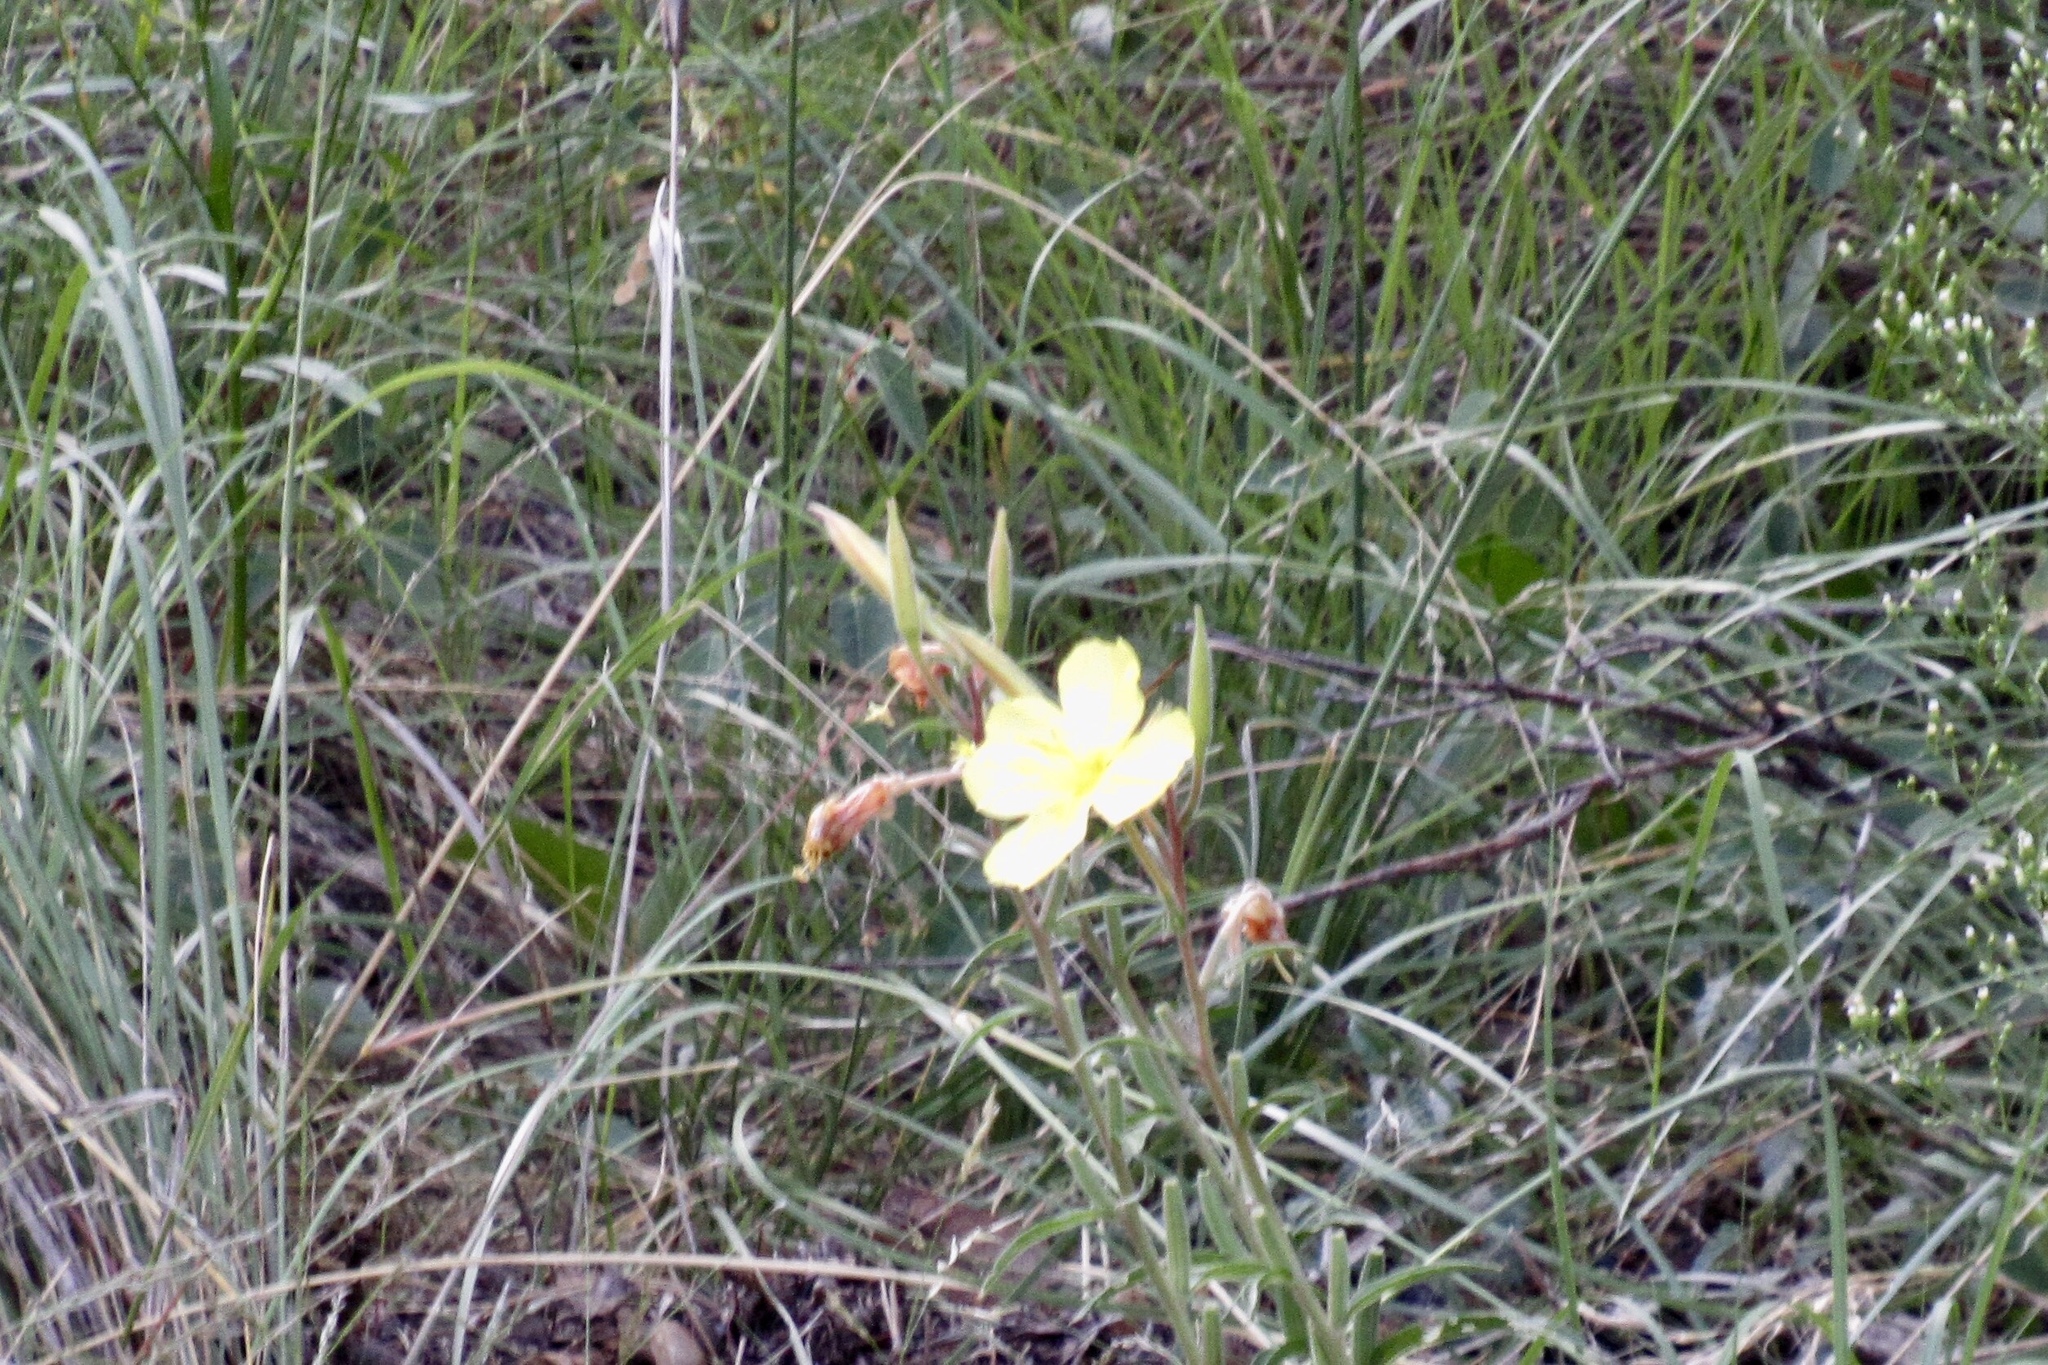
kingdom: Plantae
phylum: Tracheophyta
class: Magnoliopsida
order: Myrtales
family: Onagraceae
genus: Oenothera
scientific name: Oenothera elata
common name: Hooker's evening-primrose
